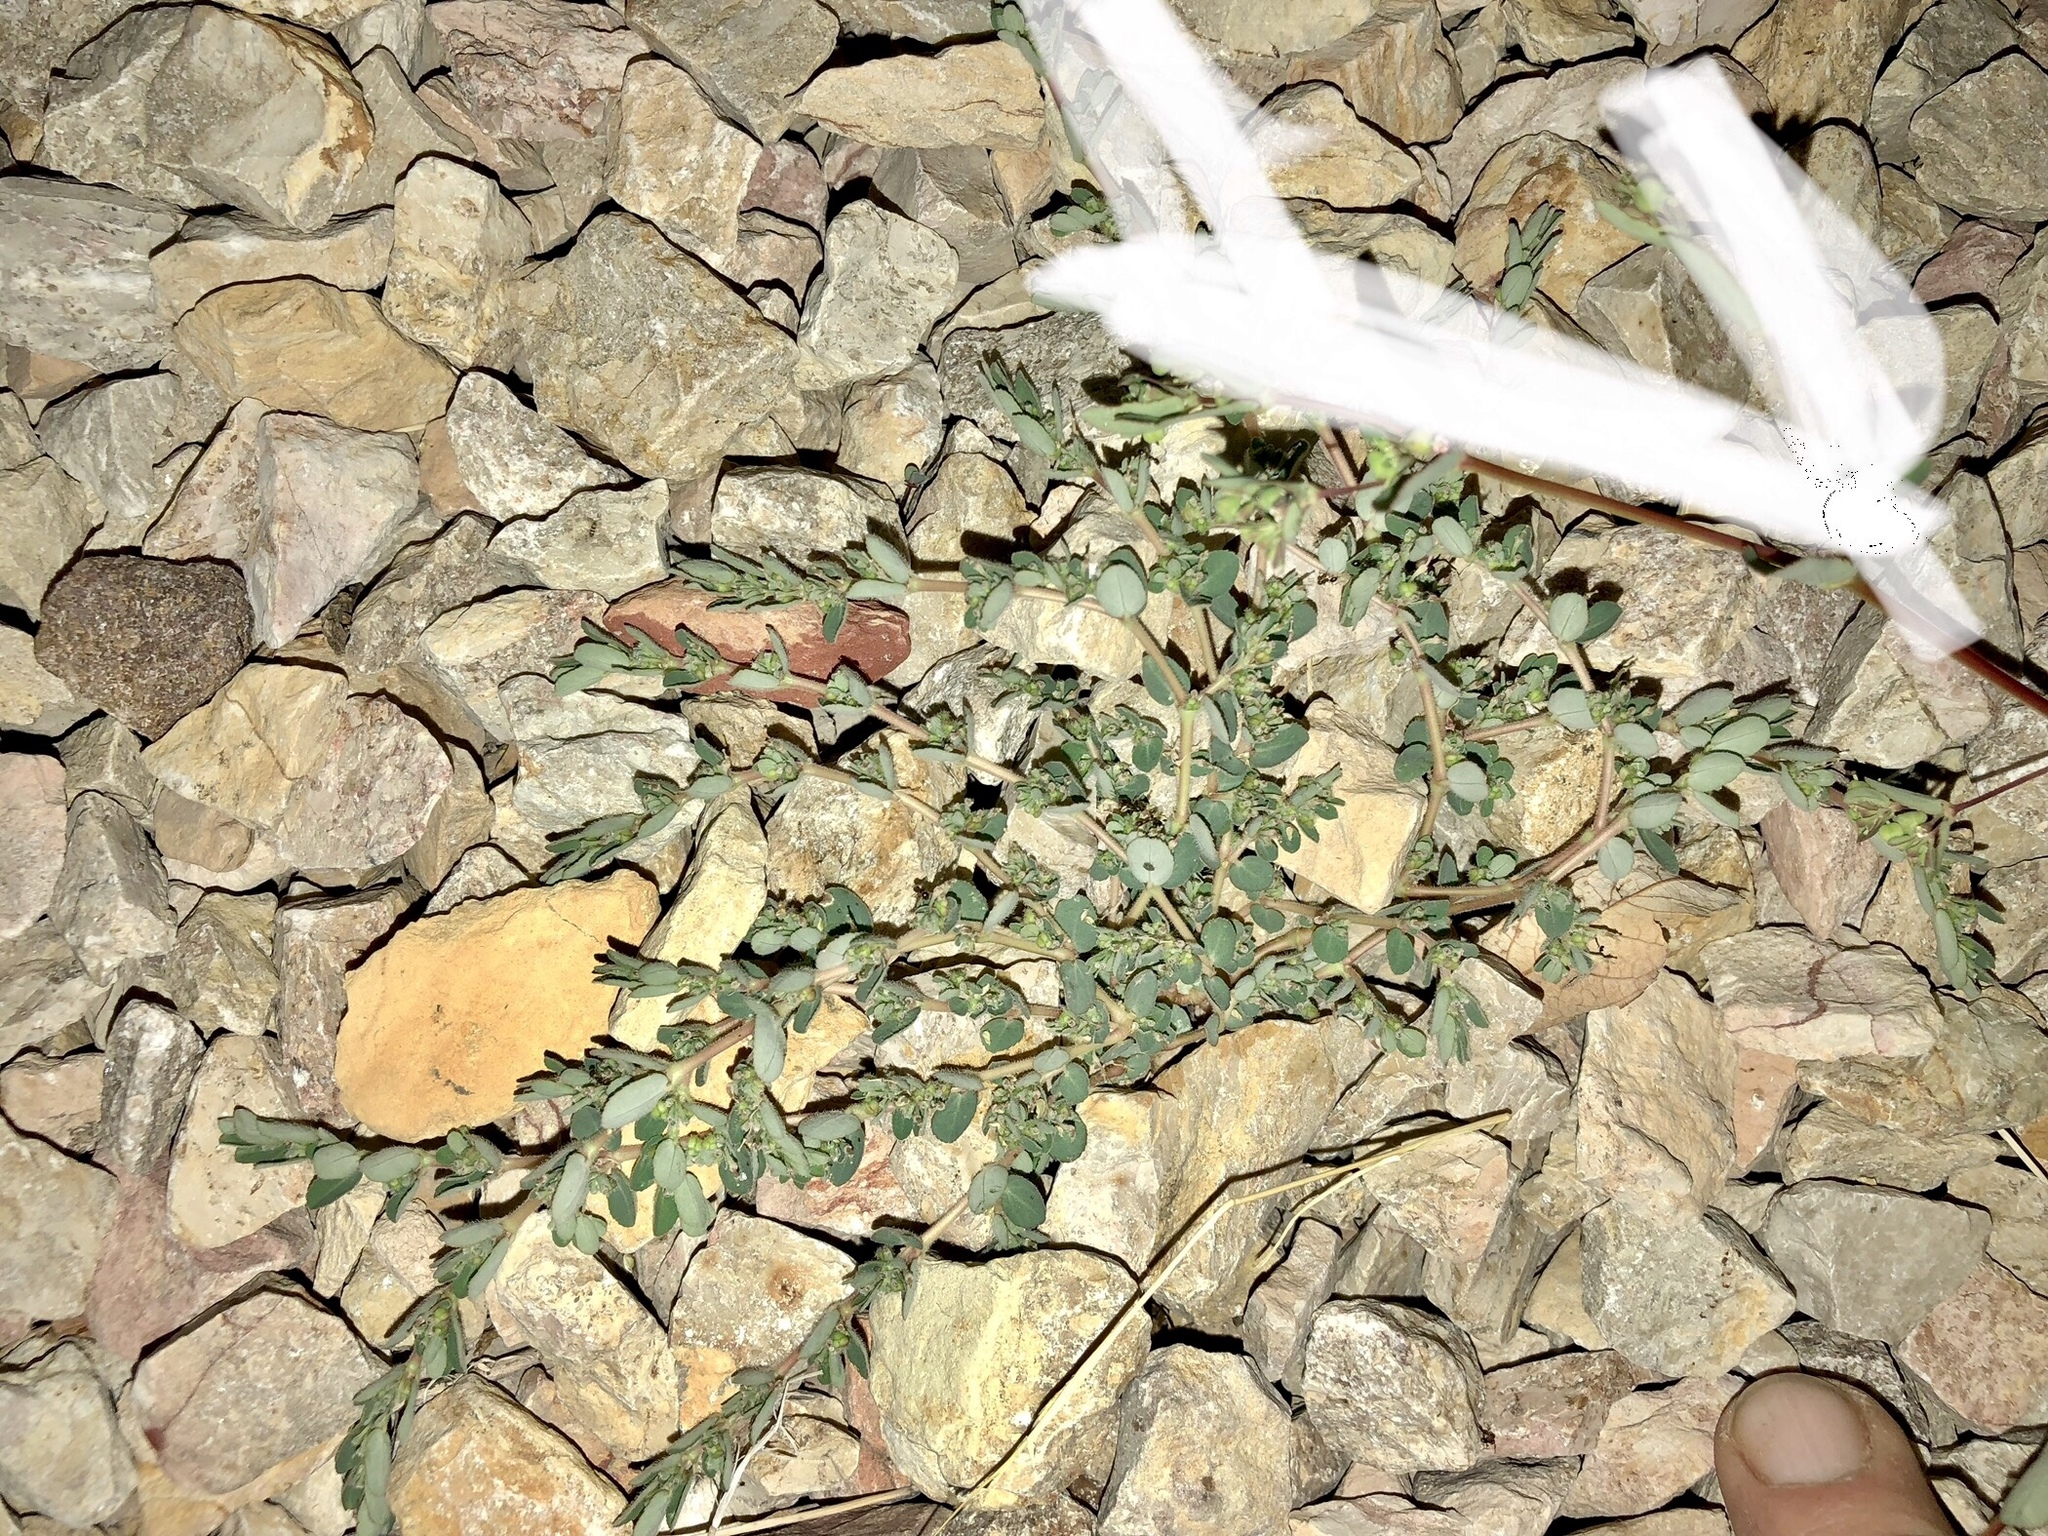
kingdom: Plantae
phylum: Tracheophyta
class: Magnoliopsida
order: Malpighiales
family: Euphorbiaceae
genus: Euphorbia
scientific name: Euphorbia prostrata
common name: Prostrate sandmat
